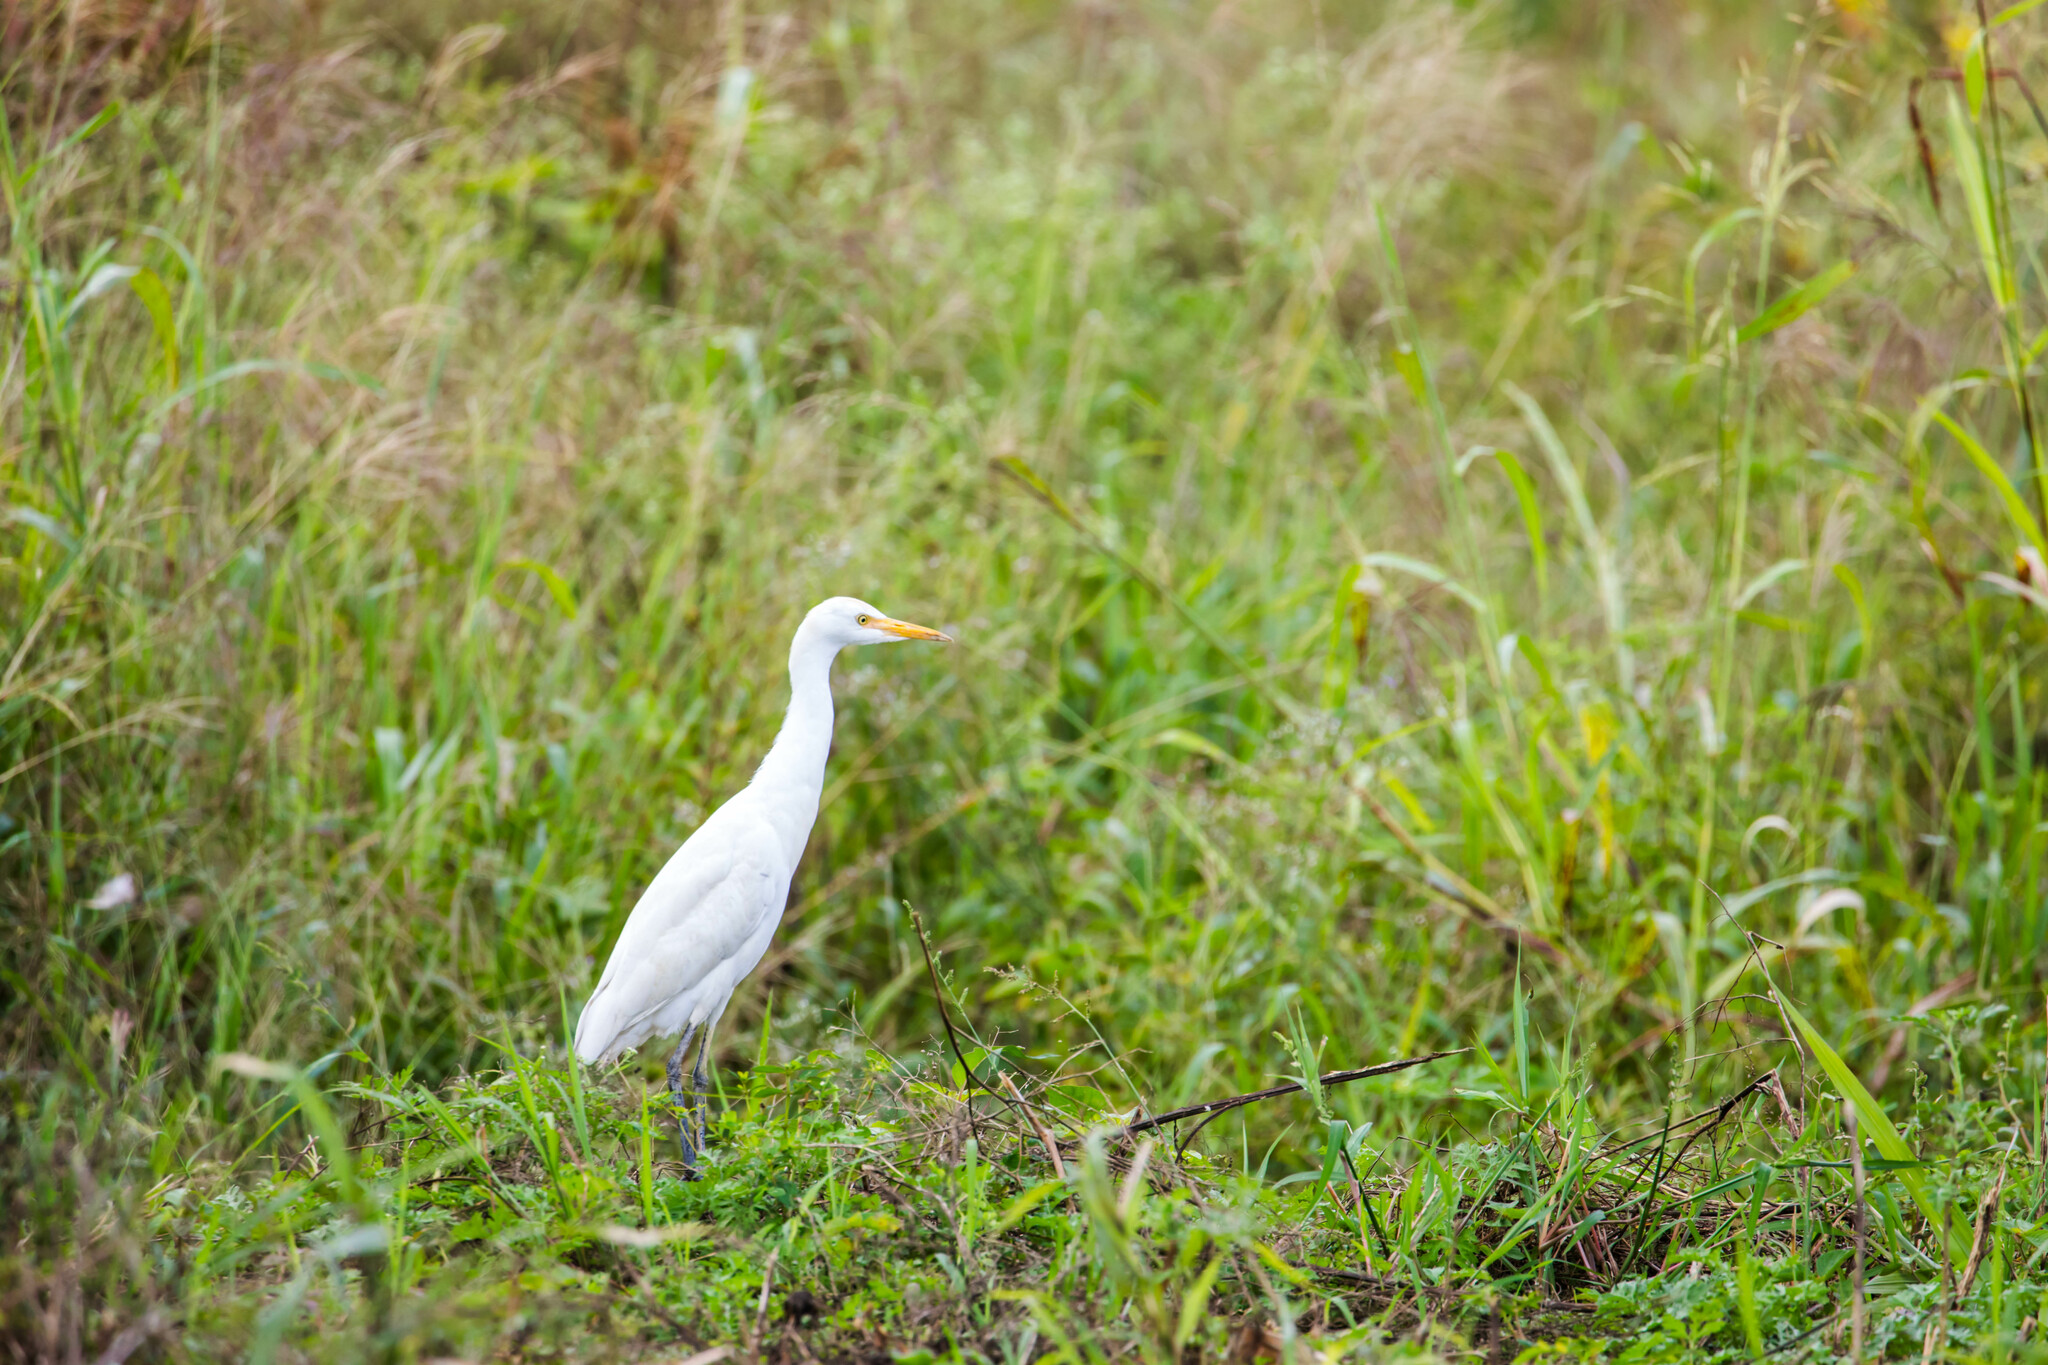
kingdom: Animalia
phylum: Chordata
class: Aves
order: Pelecaniformes
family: Ardeidae
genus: Bubulcus
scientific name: Bubulcus ibis
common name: Cattle egret
